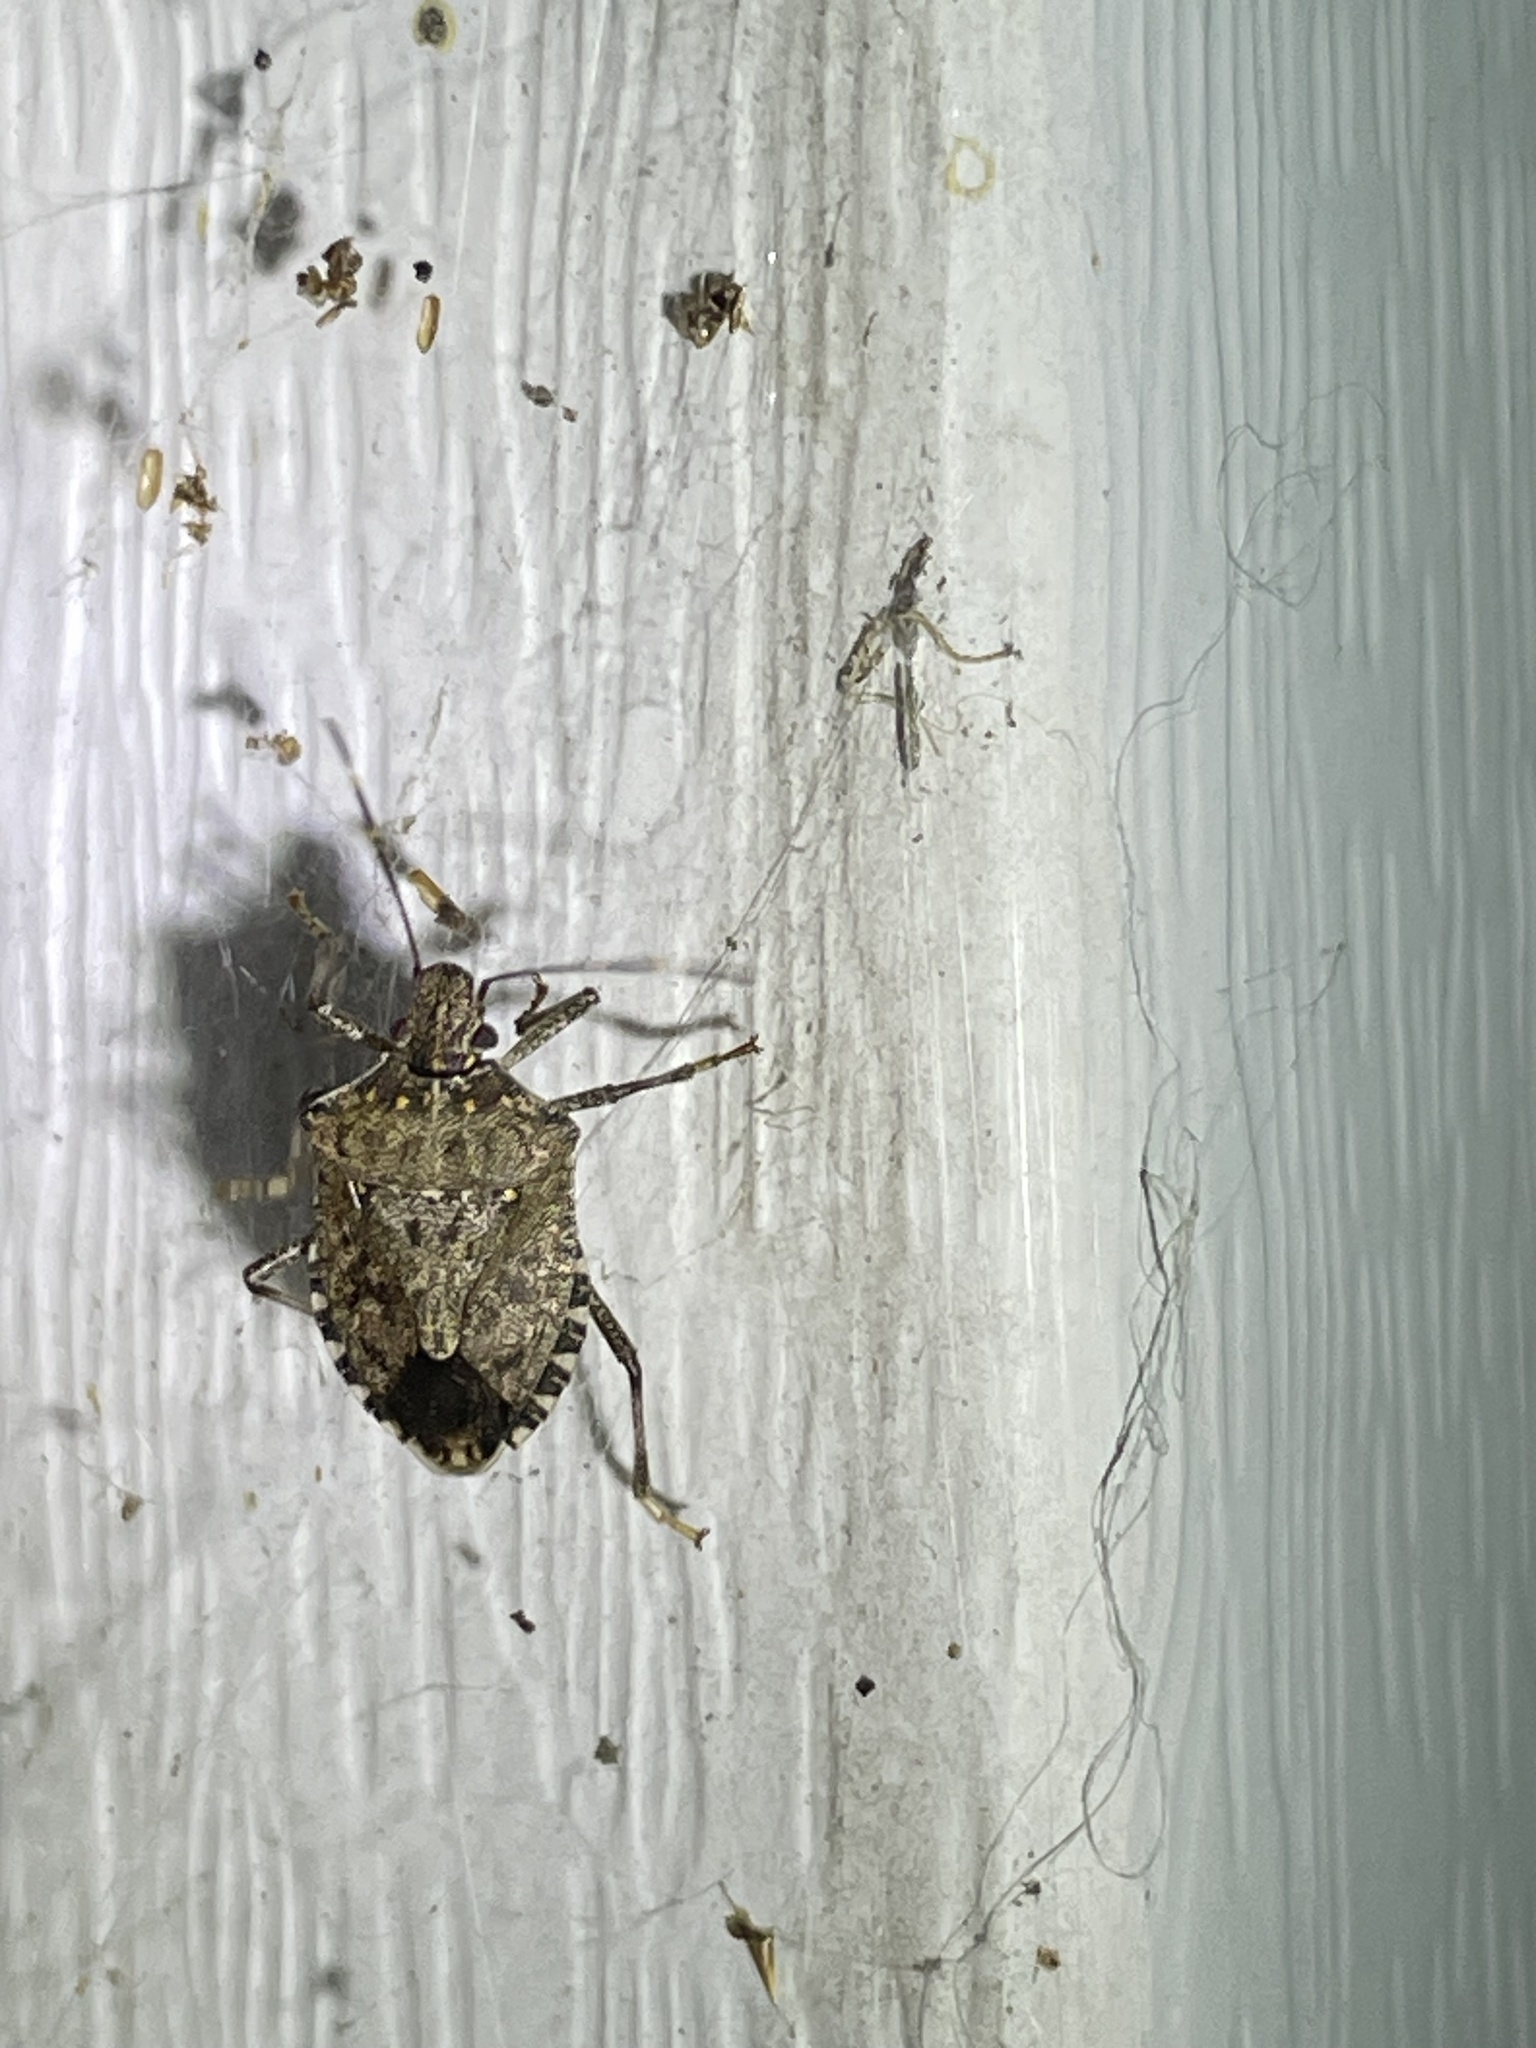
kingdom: Animalia
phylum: Arthropoda
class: Insecta
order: Hemiptera
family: Pentatomidae
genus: Halyomorpha
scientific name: Halyomorpha halys
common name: Brown marmorated stink bug
